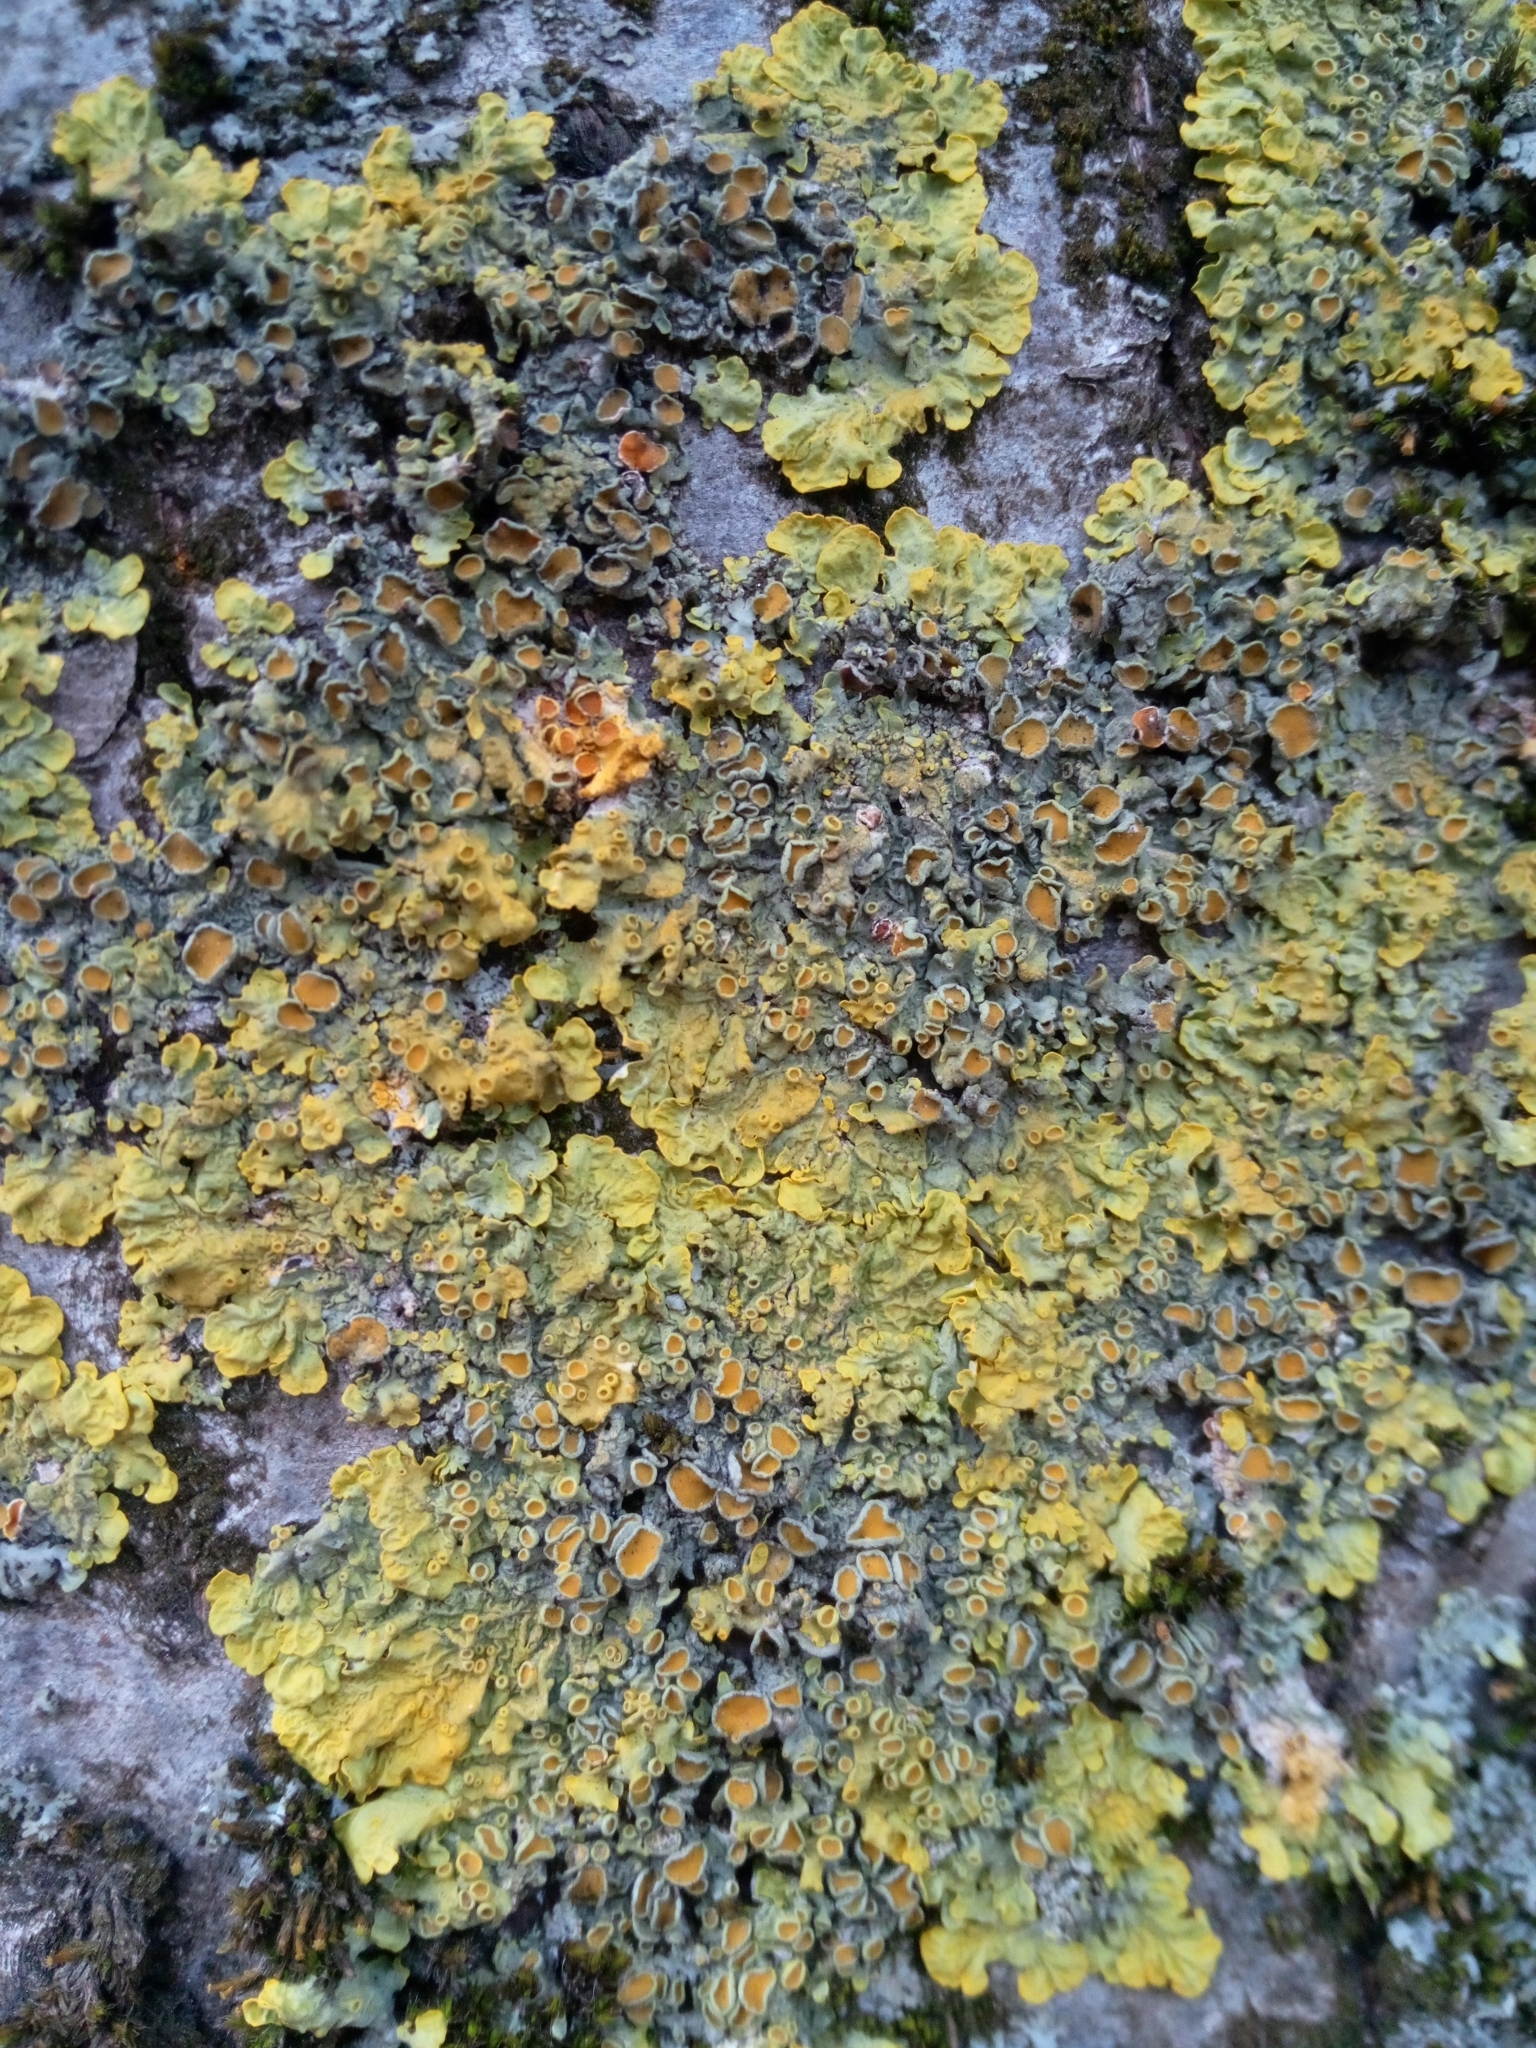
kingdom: Fungi
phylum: Ascomycota
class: Lecanoromycetes
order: Teloschistales
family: Teloschistaceae
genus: Xanthoria
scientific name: Xanthoria parietina
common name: Common orange lichen
